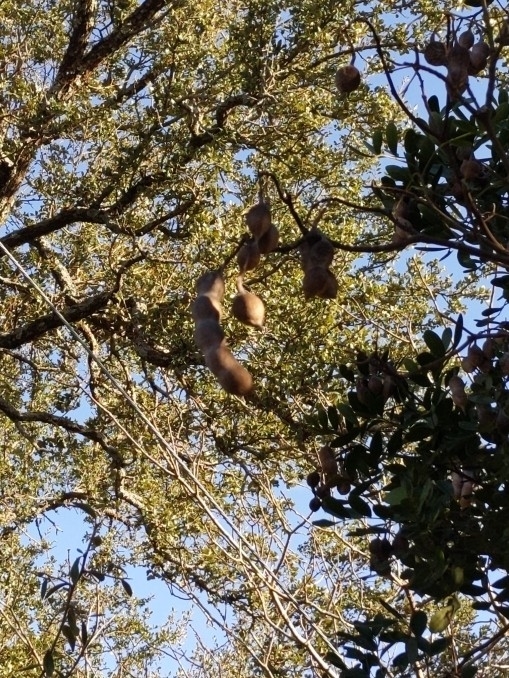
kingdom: Plantae
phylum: Tracheophyta
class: Magnoliopsida
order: Fabales
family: Fabaceae
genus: Dermatophyllum
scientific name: Dermatophyllum secundiflorum
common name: Texas-mountain-laurel
